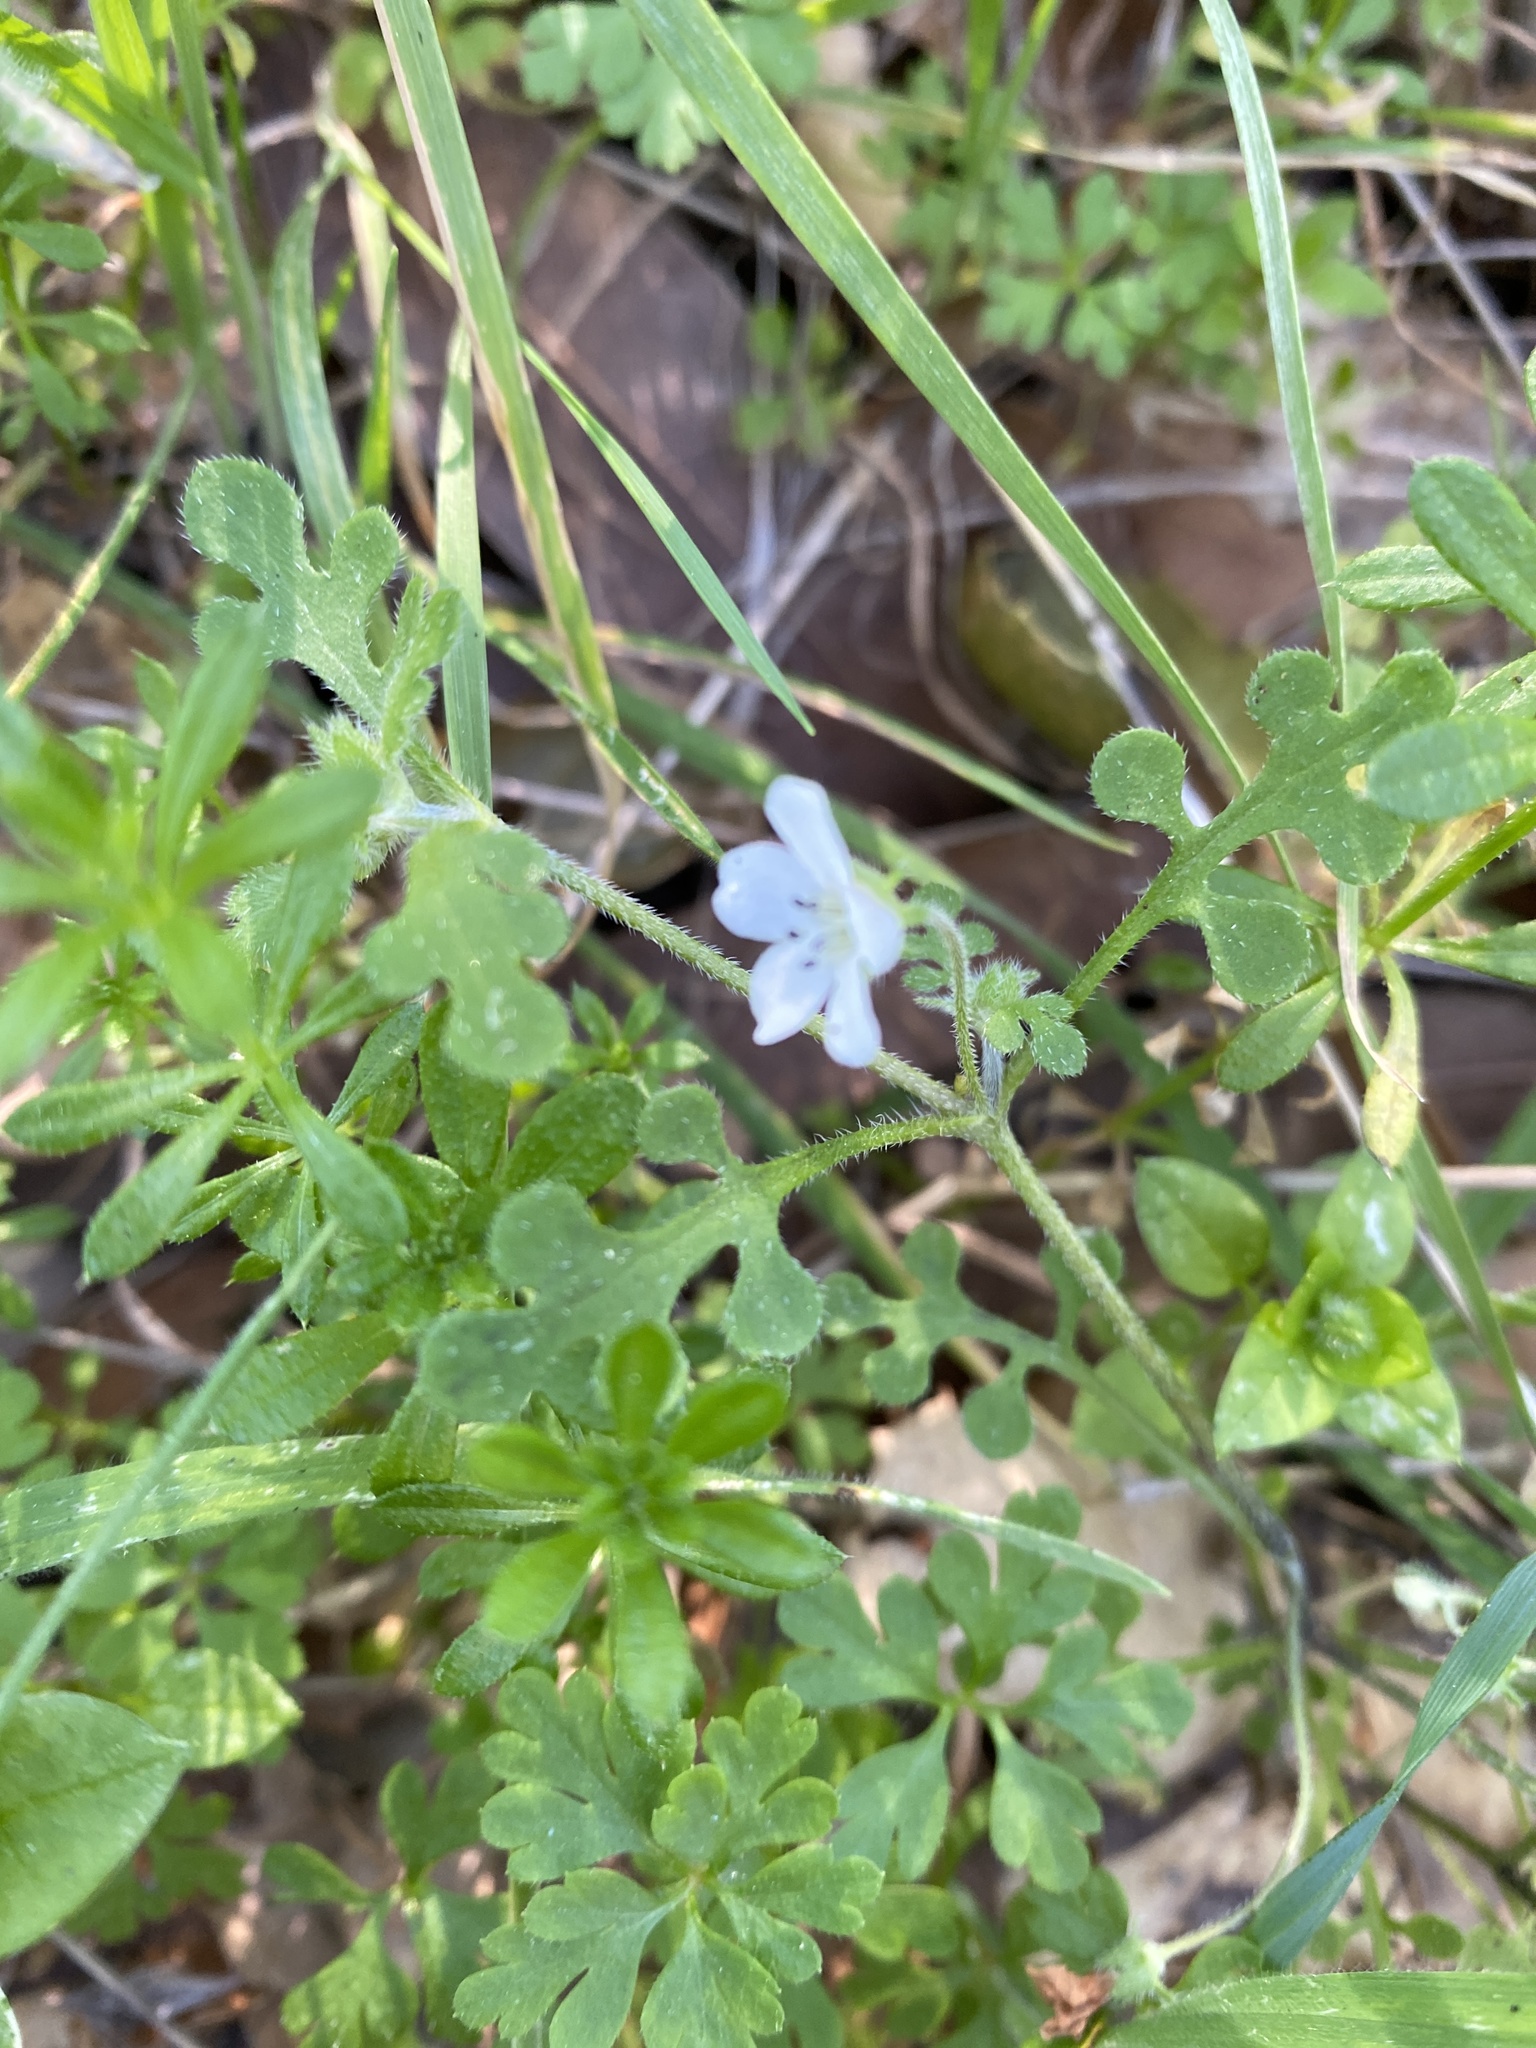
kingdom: Plantae
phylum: Tracheophyta
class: Magnoliopsida
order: Boraginales
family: Hydrophyllaceae
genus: Nemophila
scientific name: Nemophila heterophylla
